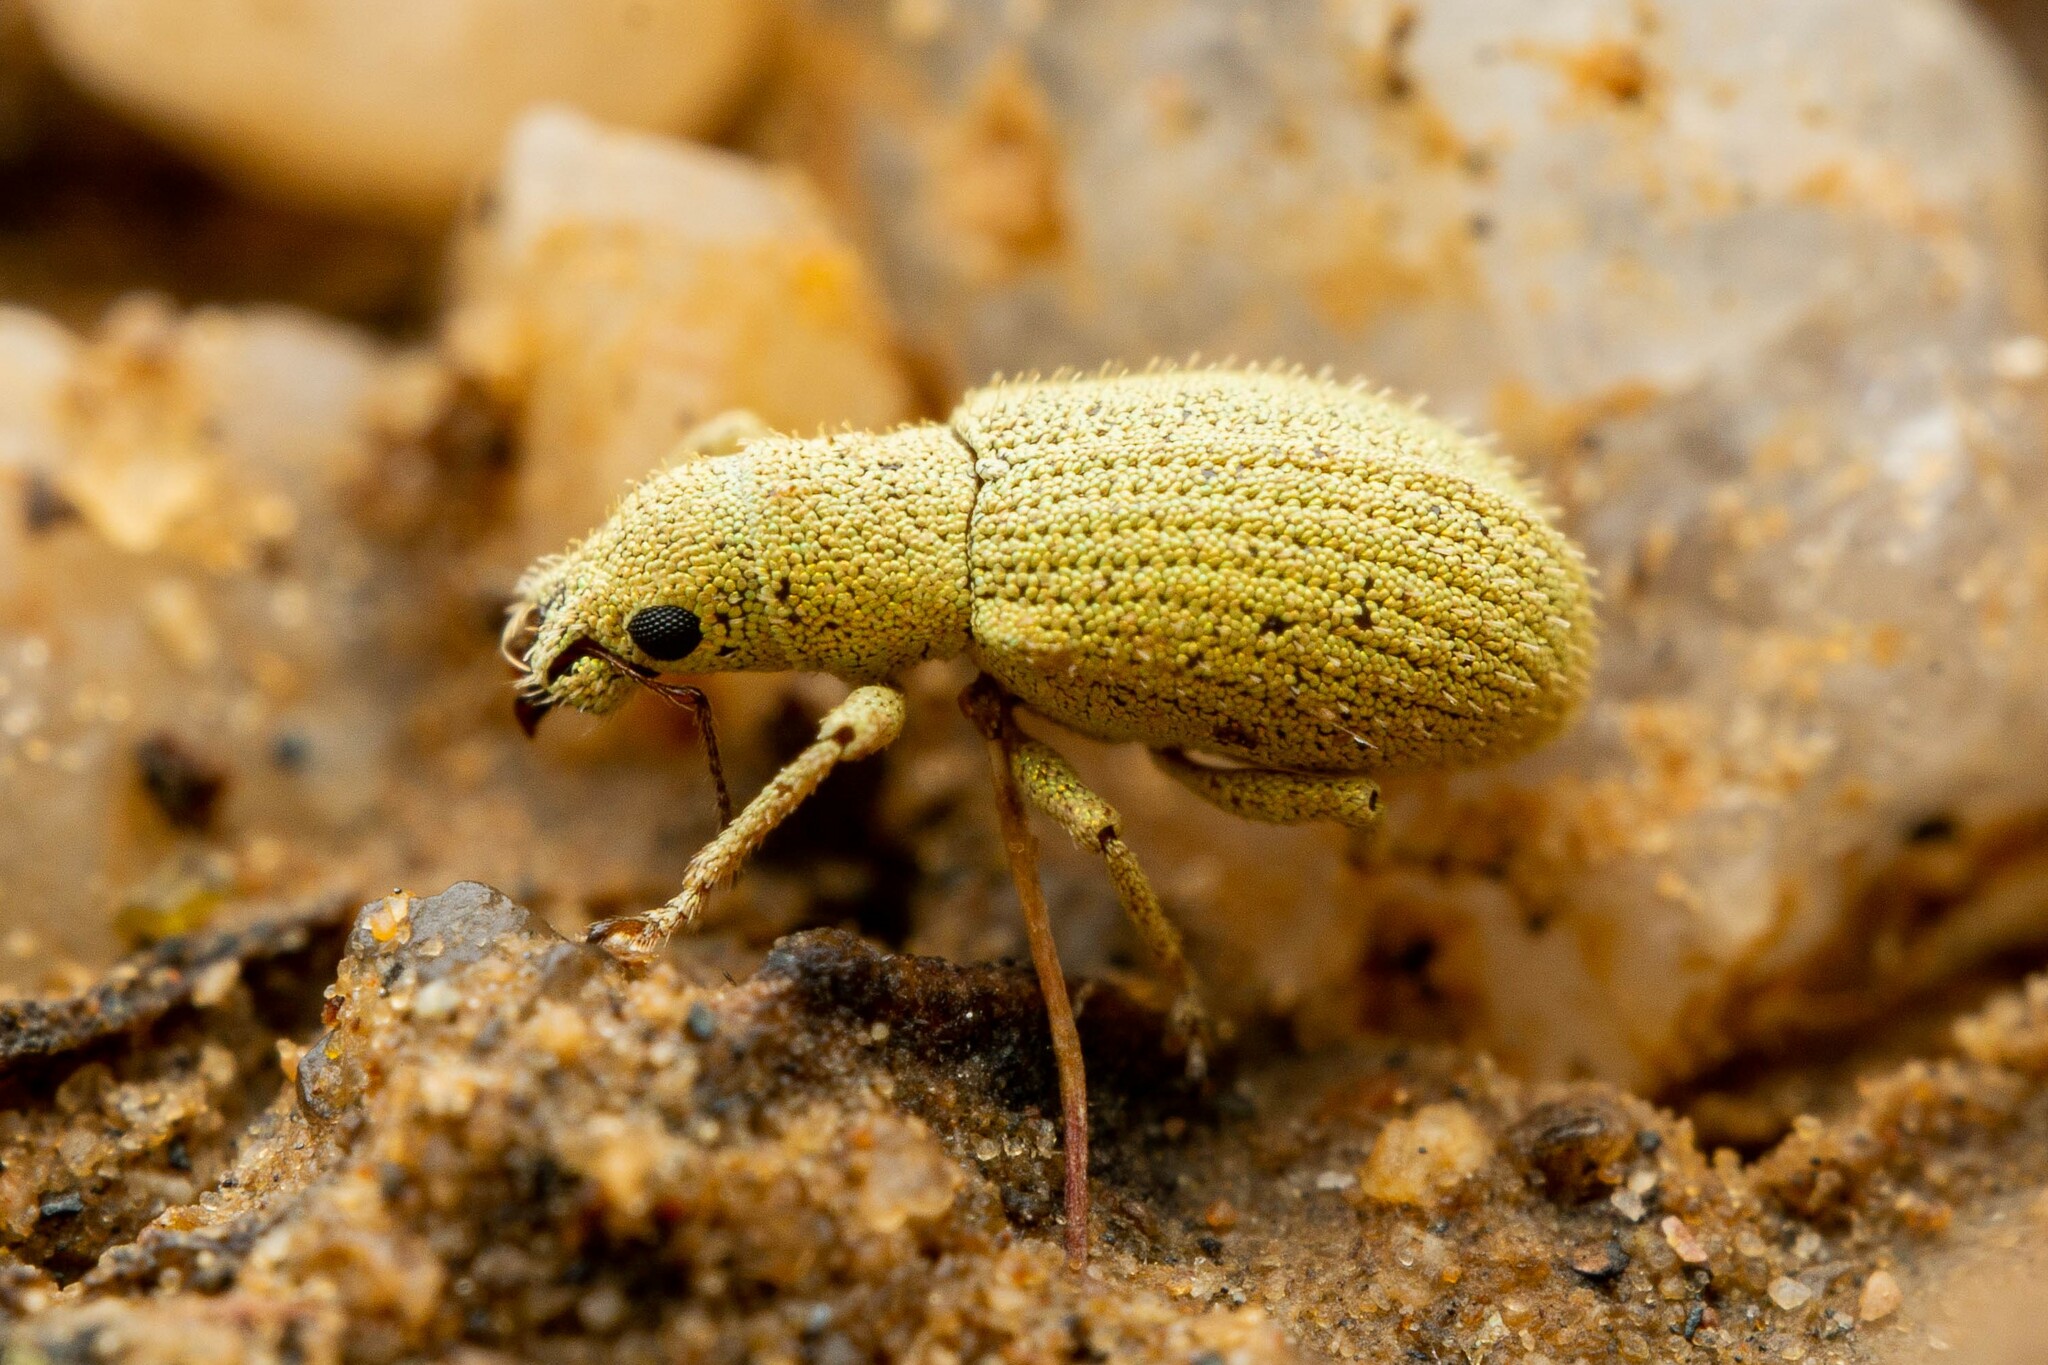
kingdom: Animalia
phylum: Arthropoda
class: Insecta
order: Coleoptera
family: Curculionidae
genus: Polydrusus
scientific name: Polydrusus hassayampus
